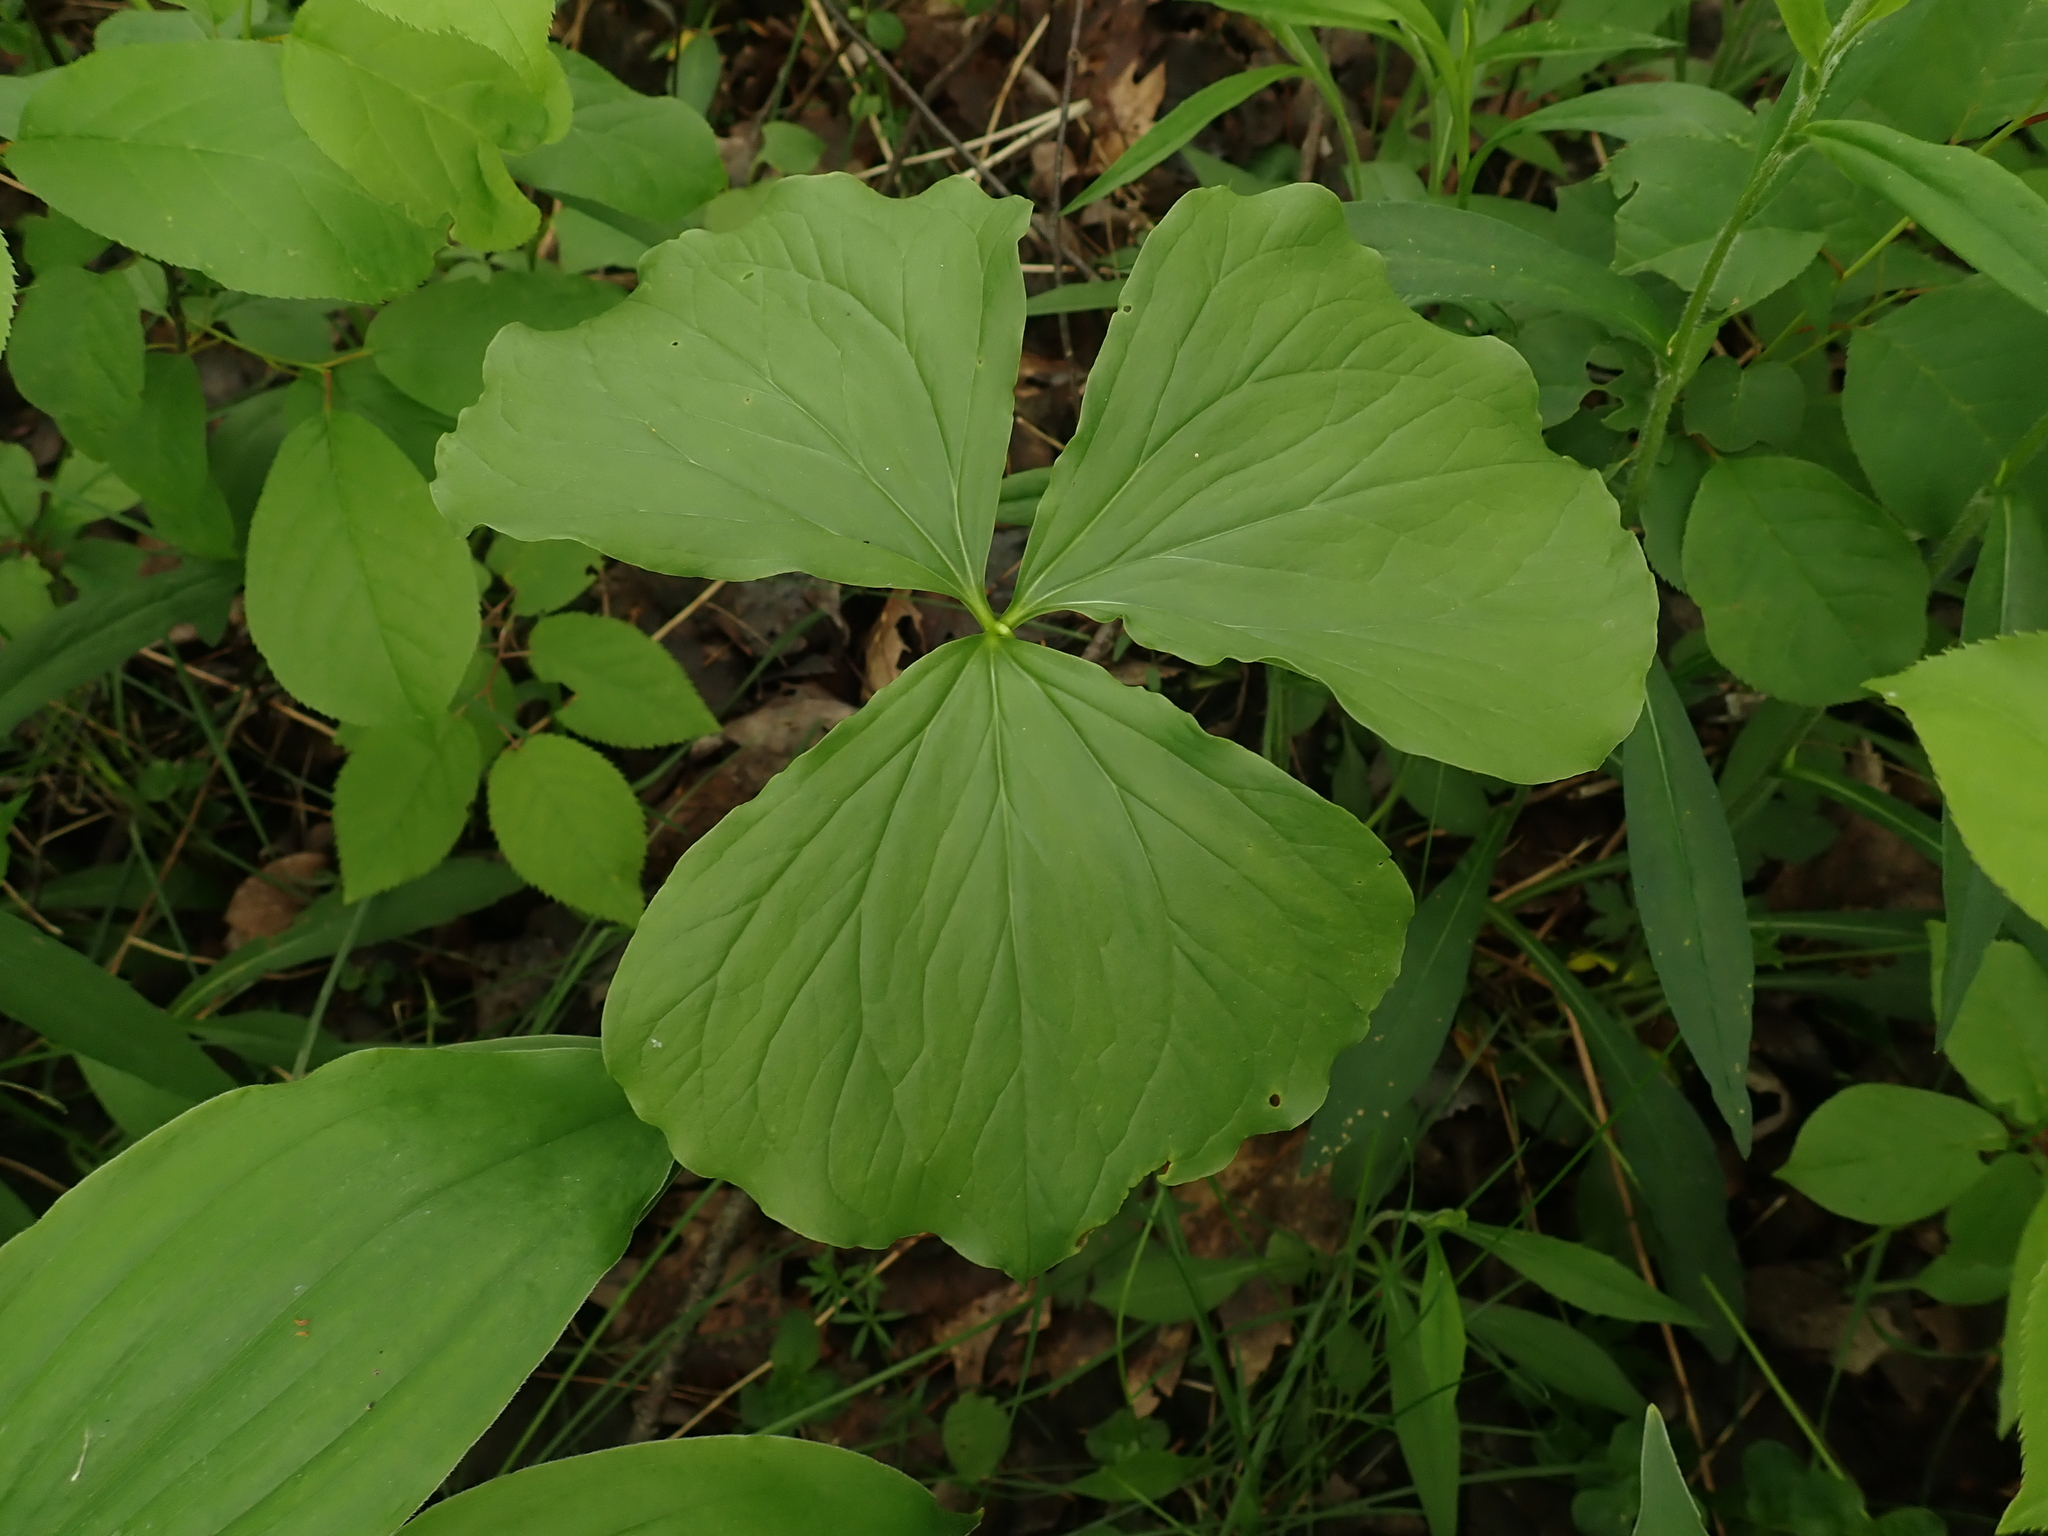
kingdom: Plantae
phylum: Tracheophyta
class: Liliopsida
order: Liliales
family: Melanthiaceae
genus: Trillium
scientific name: Trillium cernuum
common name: Nodding trillium
